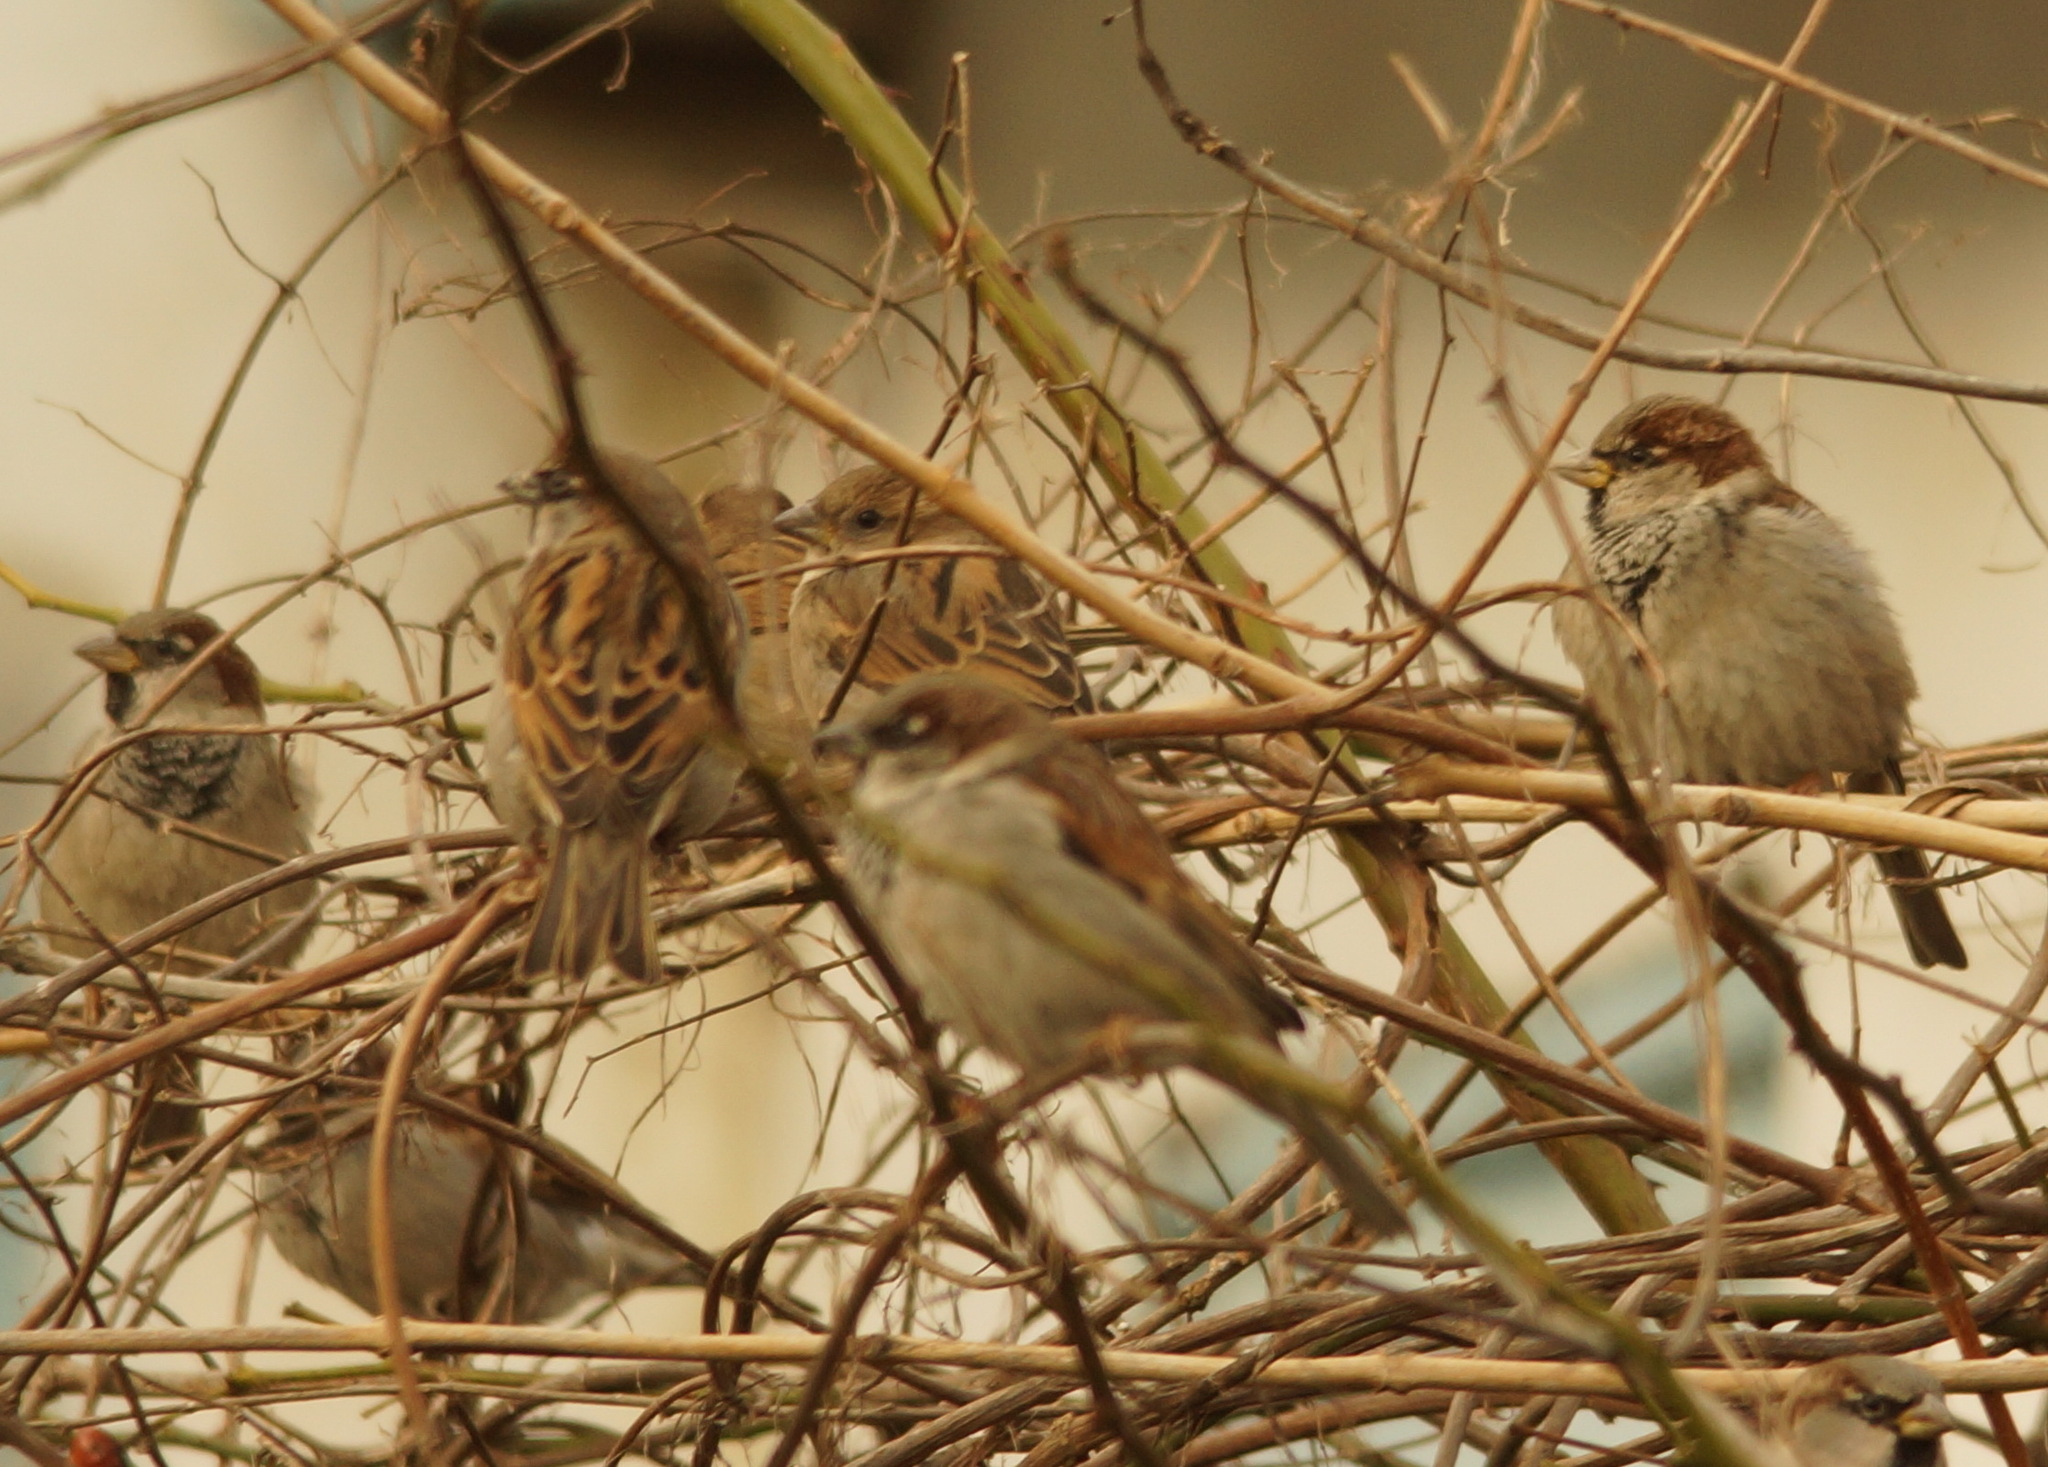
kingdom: Animalia
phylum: Chordata
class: Aves
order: Passeriformes
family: Passeridae
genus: Passer
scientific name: Passer domesticus
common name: House sparrow
